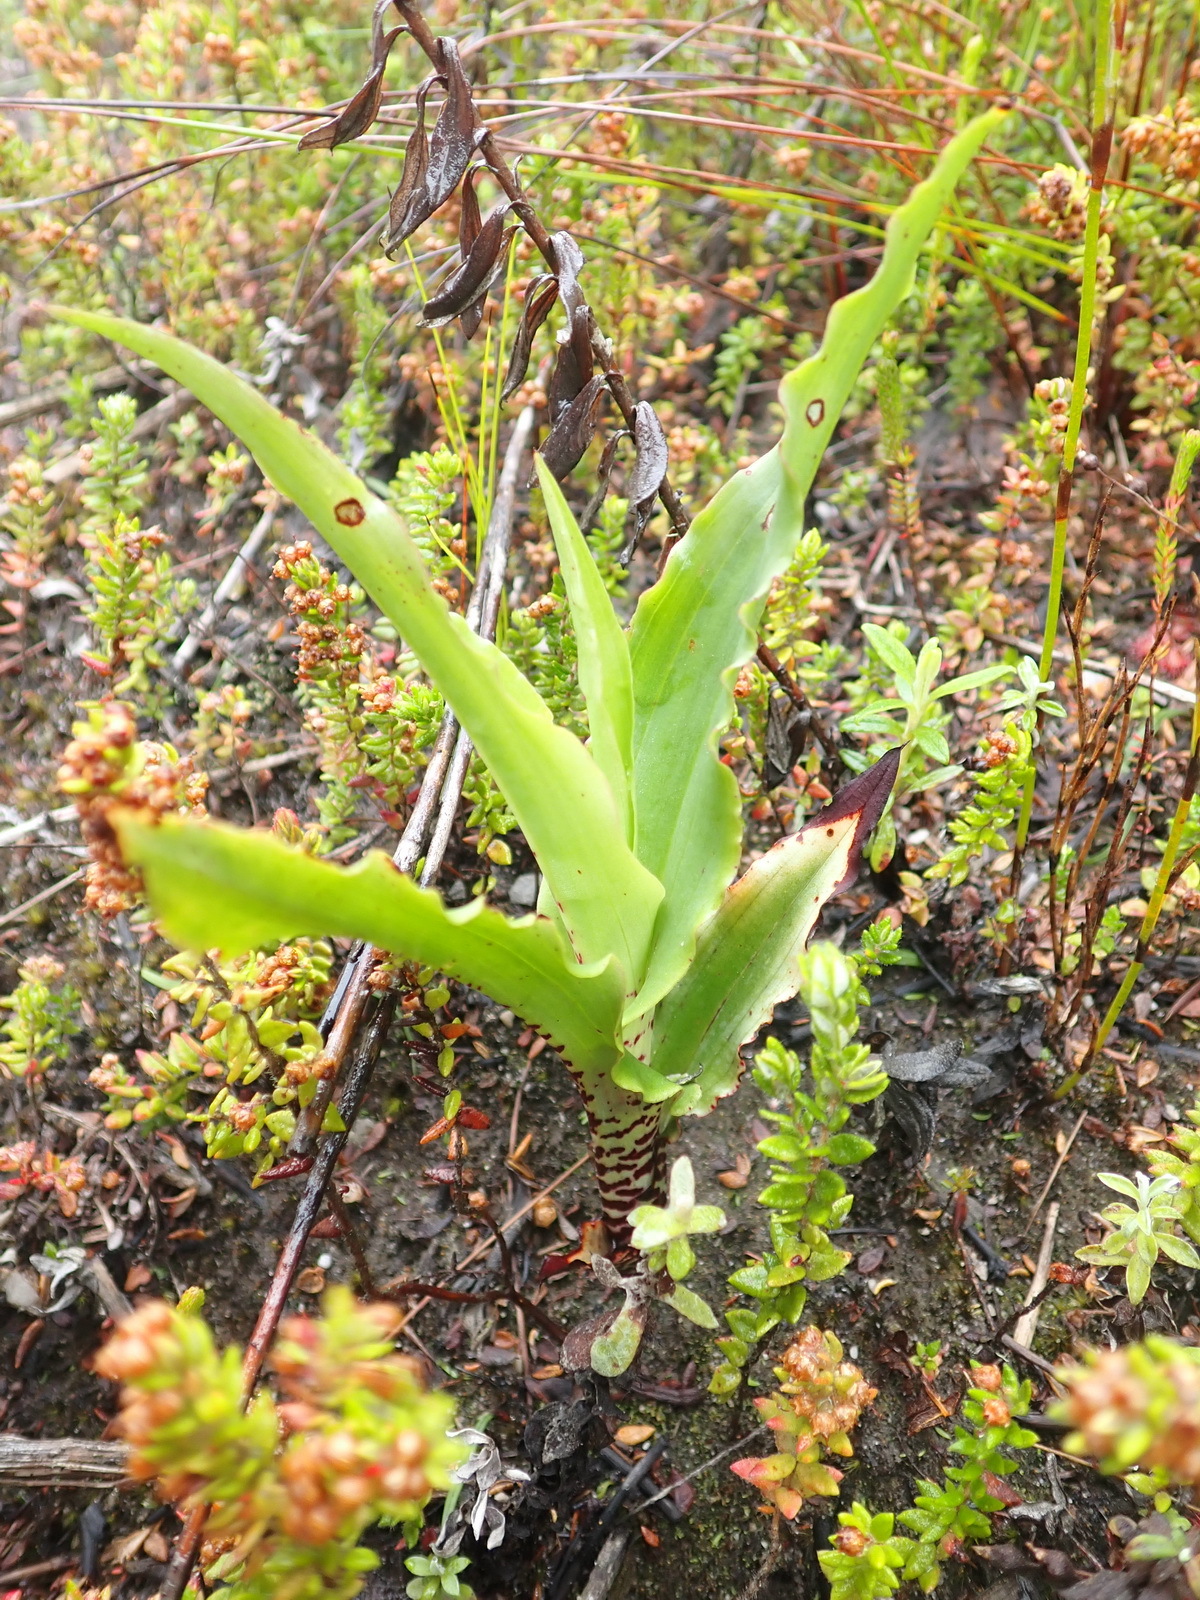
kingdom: Plantae
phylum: Tracheophyta
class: Liliopsida
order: Asparagales
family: Orchidaceae
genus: Disa
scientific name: Disa cornuta
